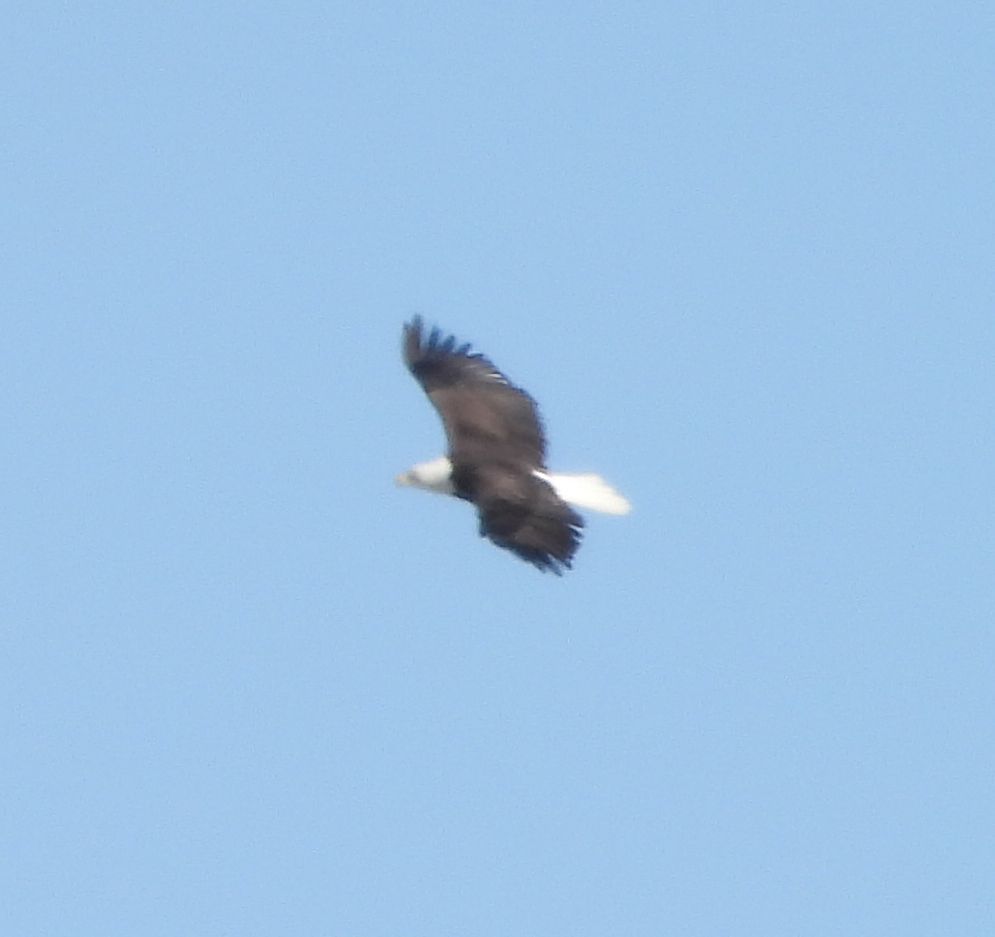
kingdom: Animalia
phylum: Chordata
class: Aves
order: Accipitriformes
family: Accipitridae
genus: Haliaeetus
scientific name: Haliaeetus leucocephalus
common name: Bald eagle
